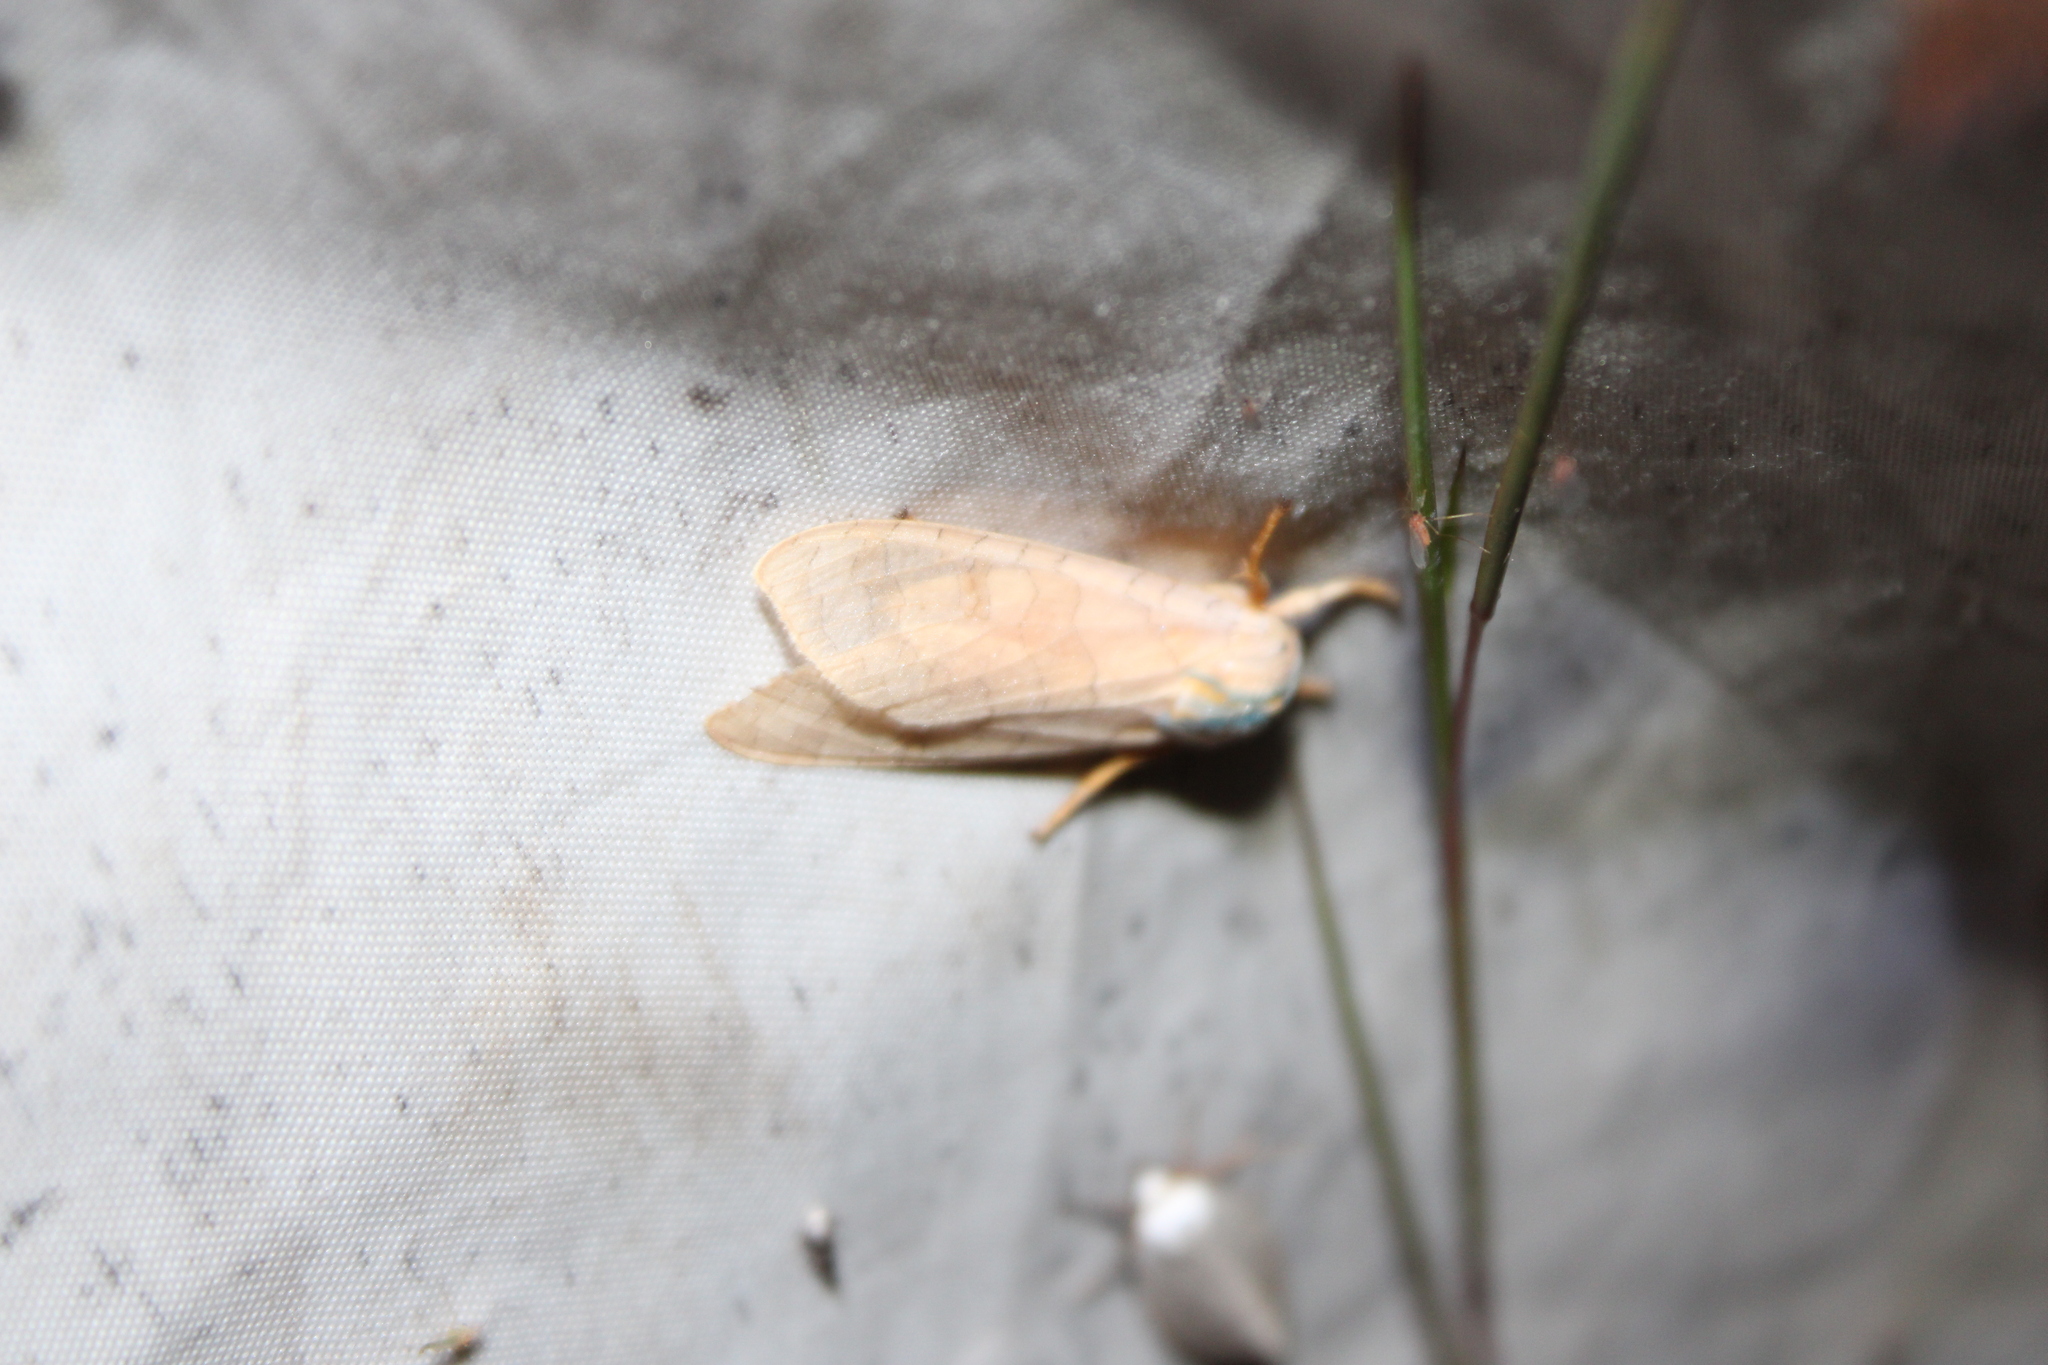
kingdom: Animalia
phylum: Arthropoda
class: Insecta
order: Lepidoptera
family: Erebidae
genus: Halysidota
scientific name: Halysidota
